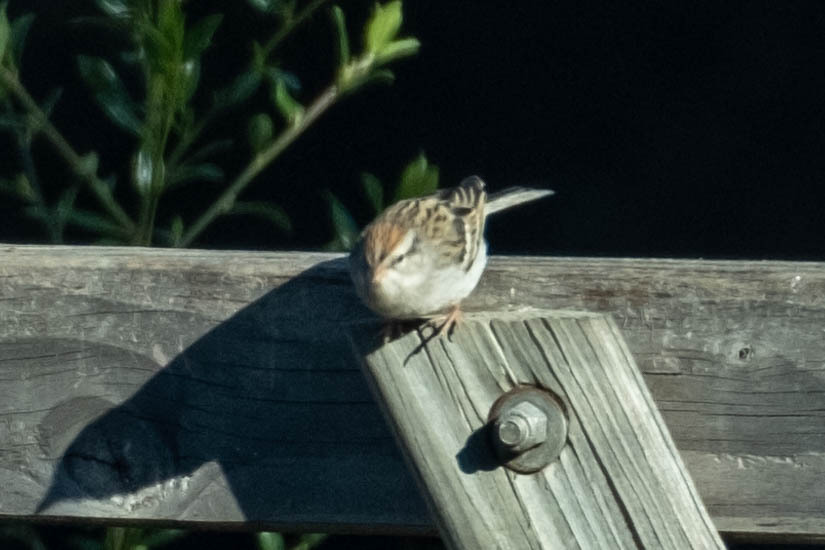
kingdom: Animalia
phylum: Chordata
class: Aves
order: Passeriformes
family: Passerellidae
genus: Spizella
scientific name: Spizella passerina
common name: Chipping sparrow
